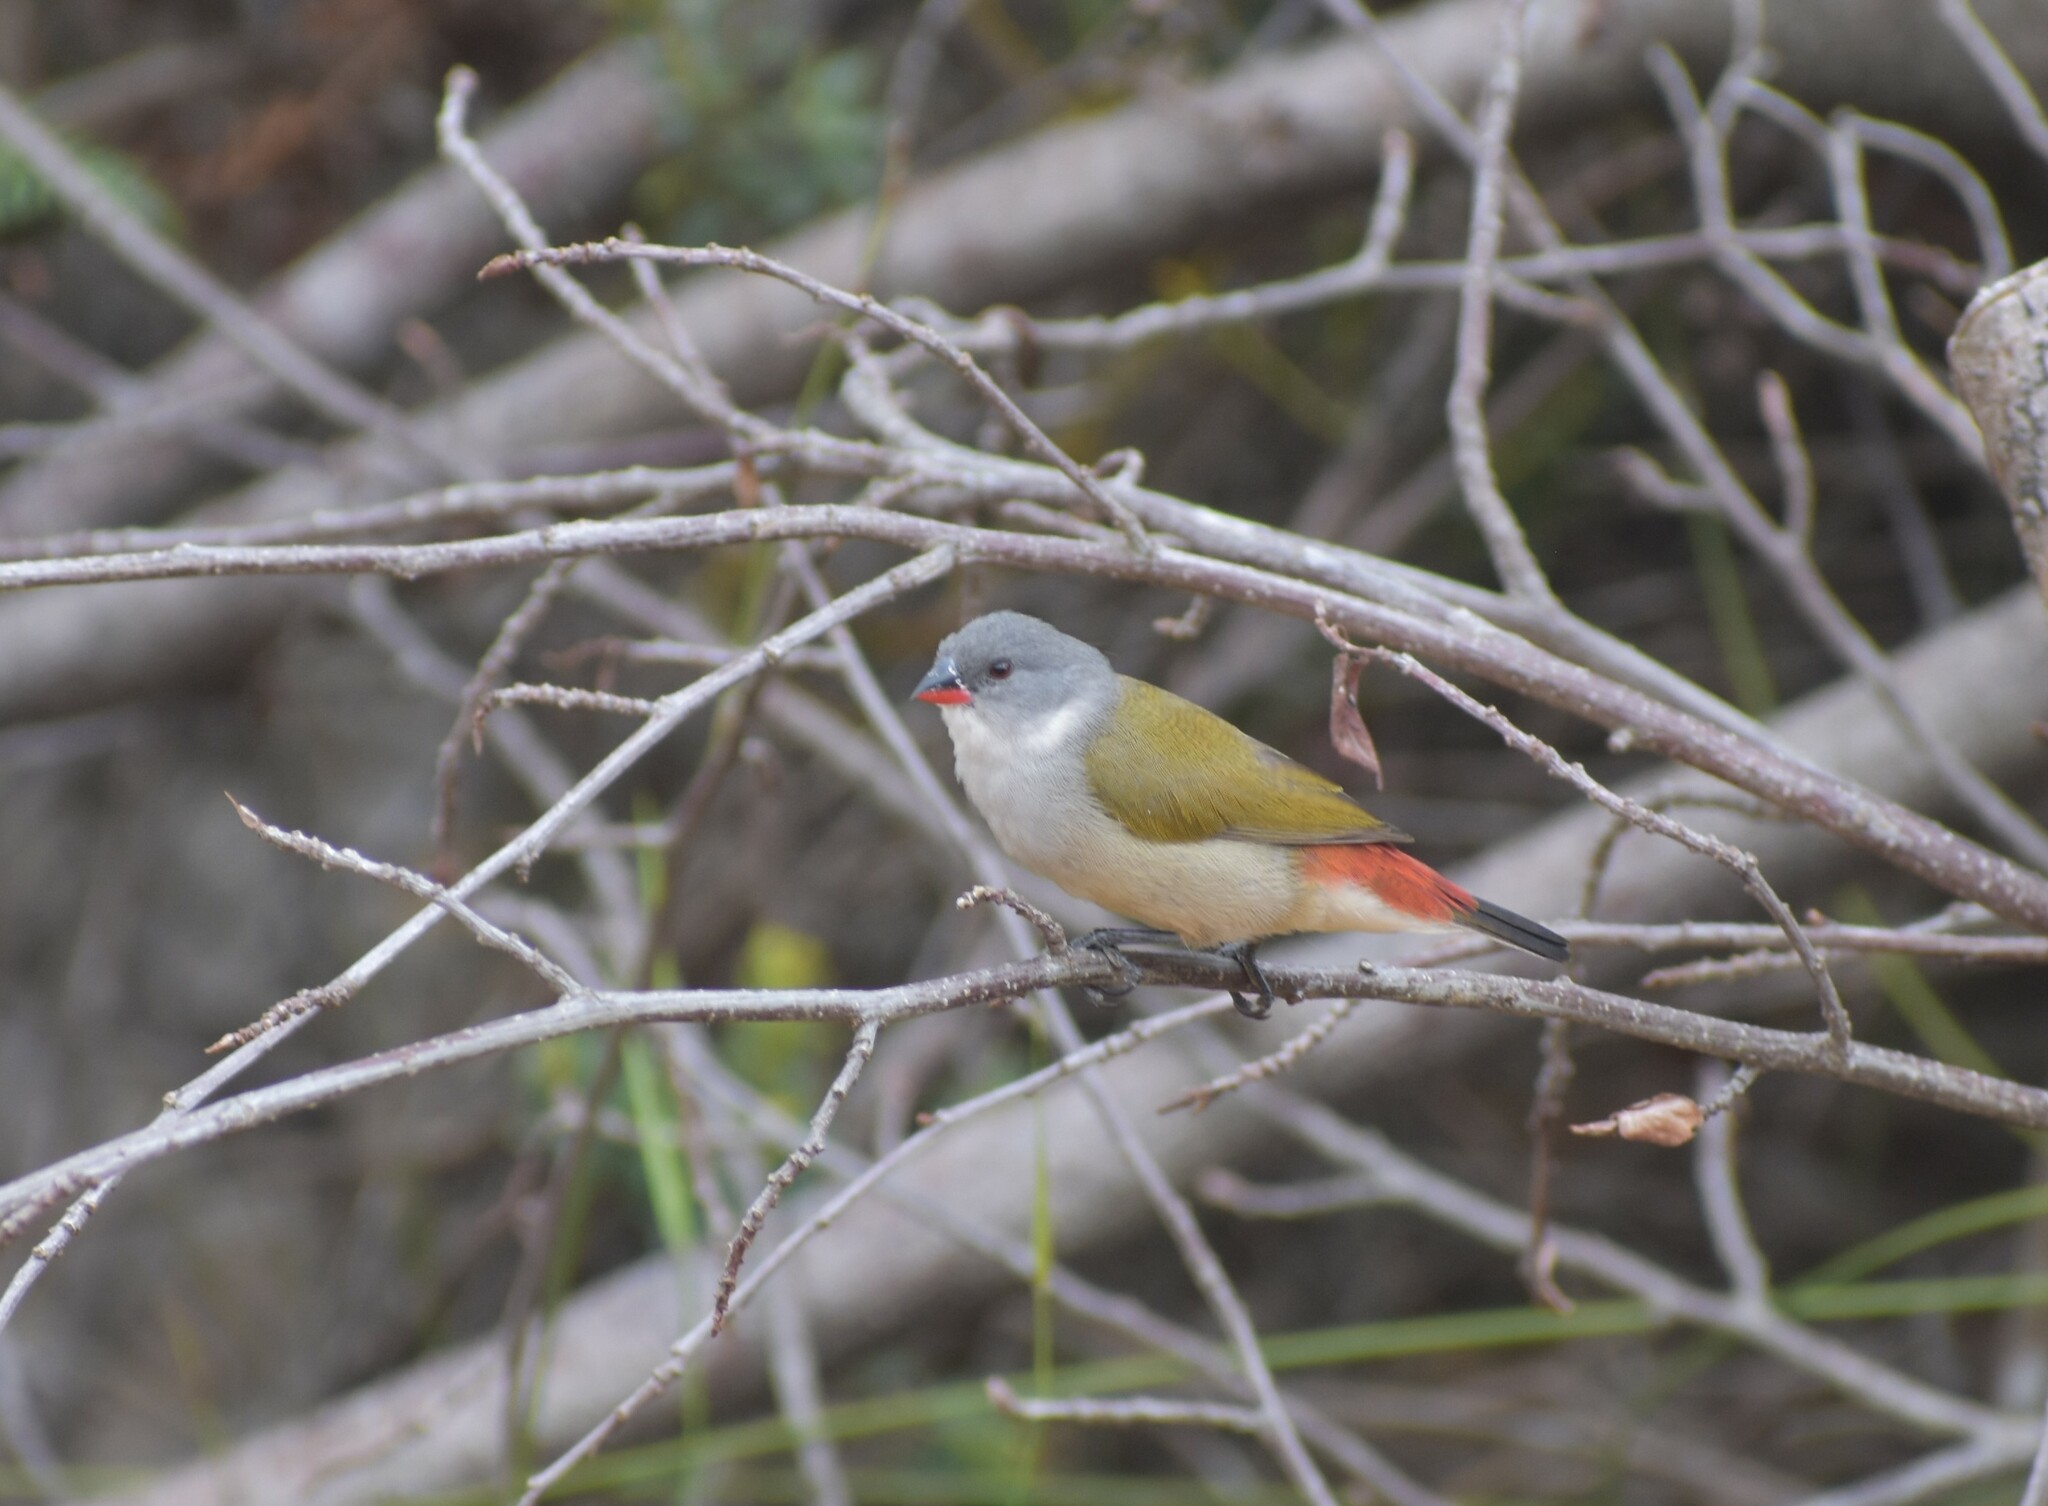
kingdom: Animalia
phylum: Chordata
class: Aves
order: Passeriformes
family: Estrildidae
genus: Coccopygia
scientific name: Coccopygia melanotis
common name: Swee waxbill
